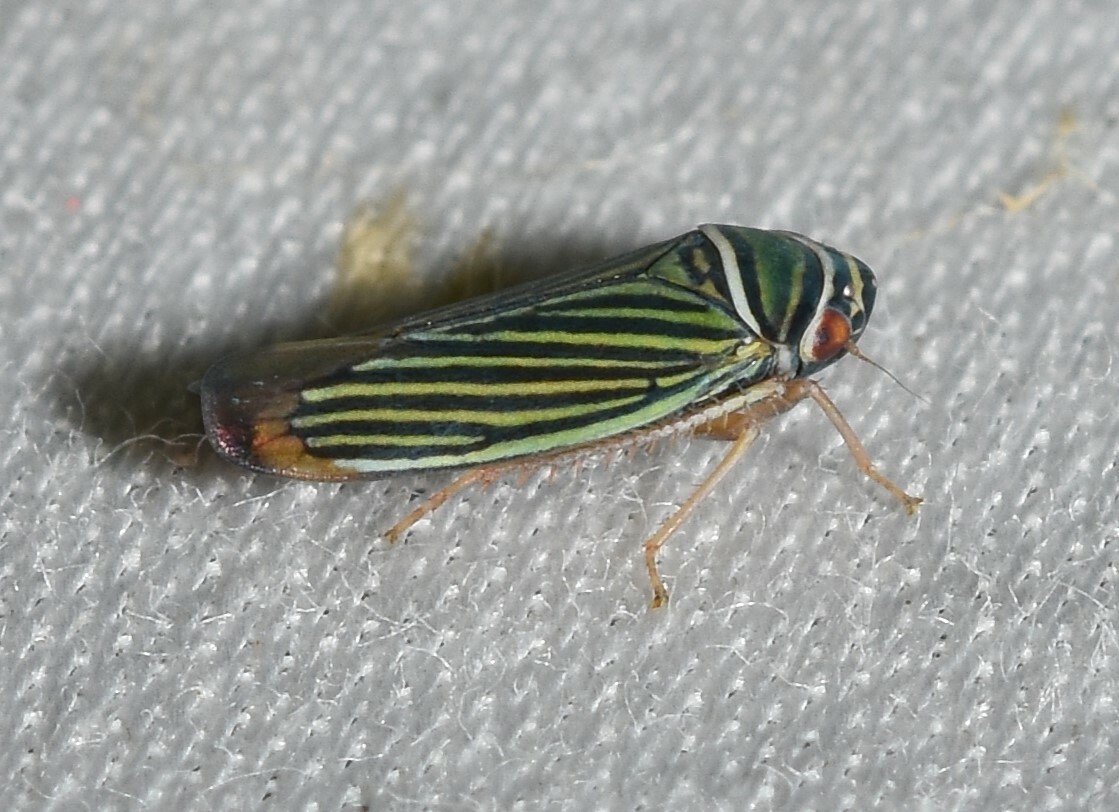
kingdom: Animalia
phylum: Arthropoda
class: Insecta
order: Hemiptera
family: Cicadellidae
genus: Tylozygus
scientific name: Tylozygus bifidus
